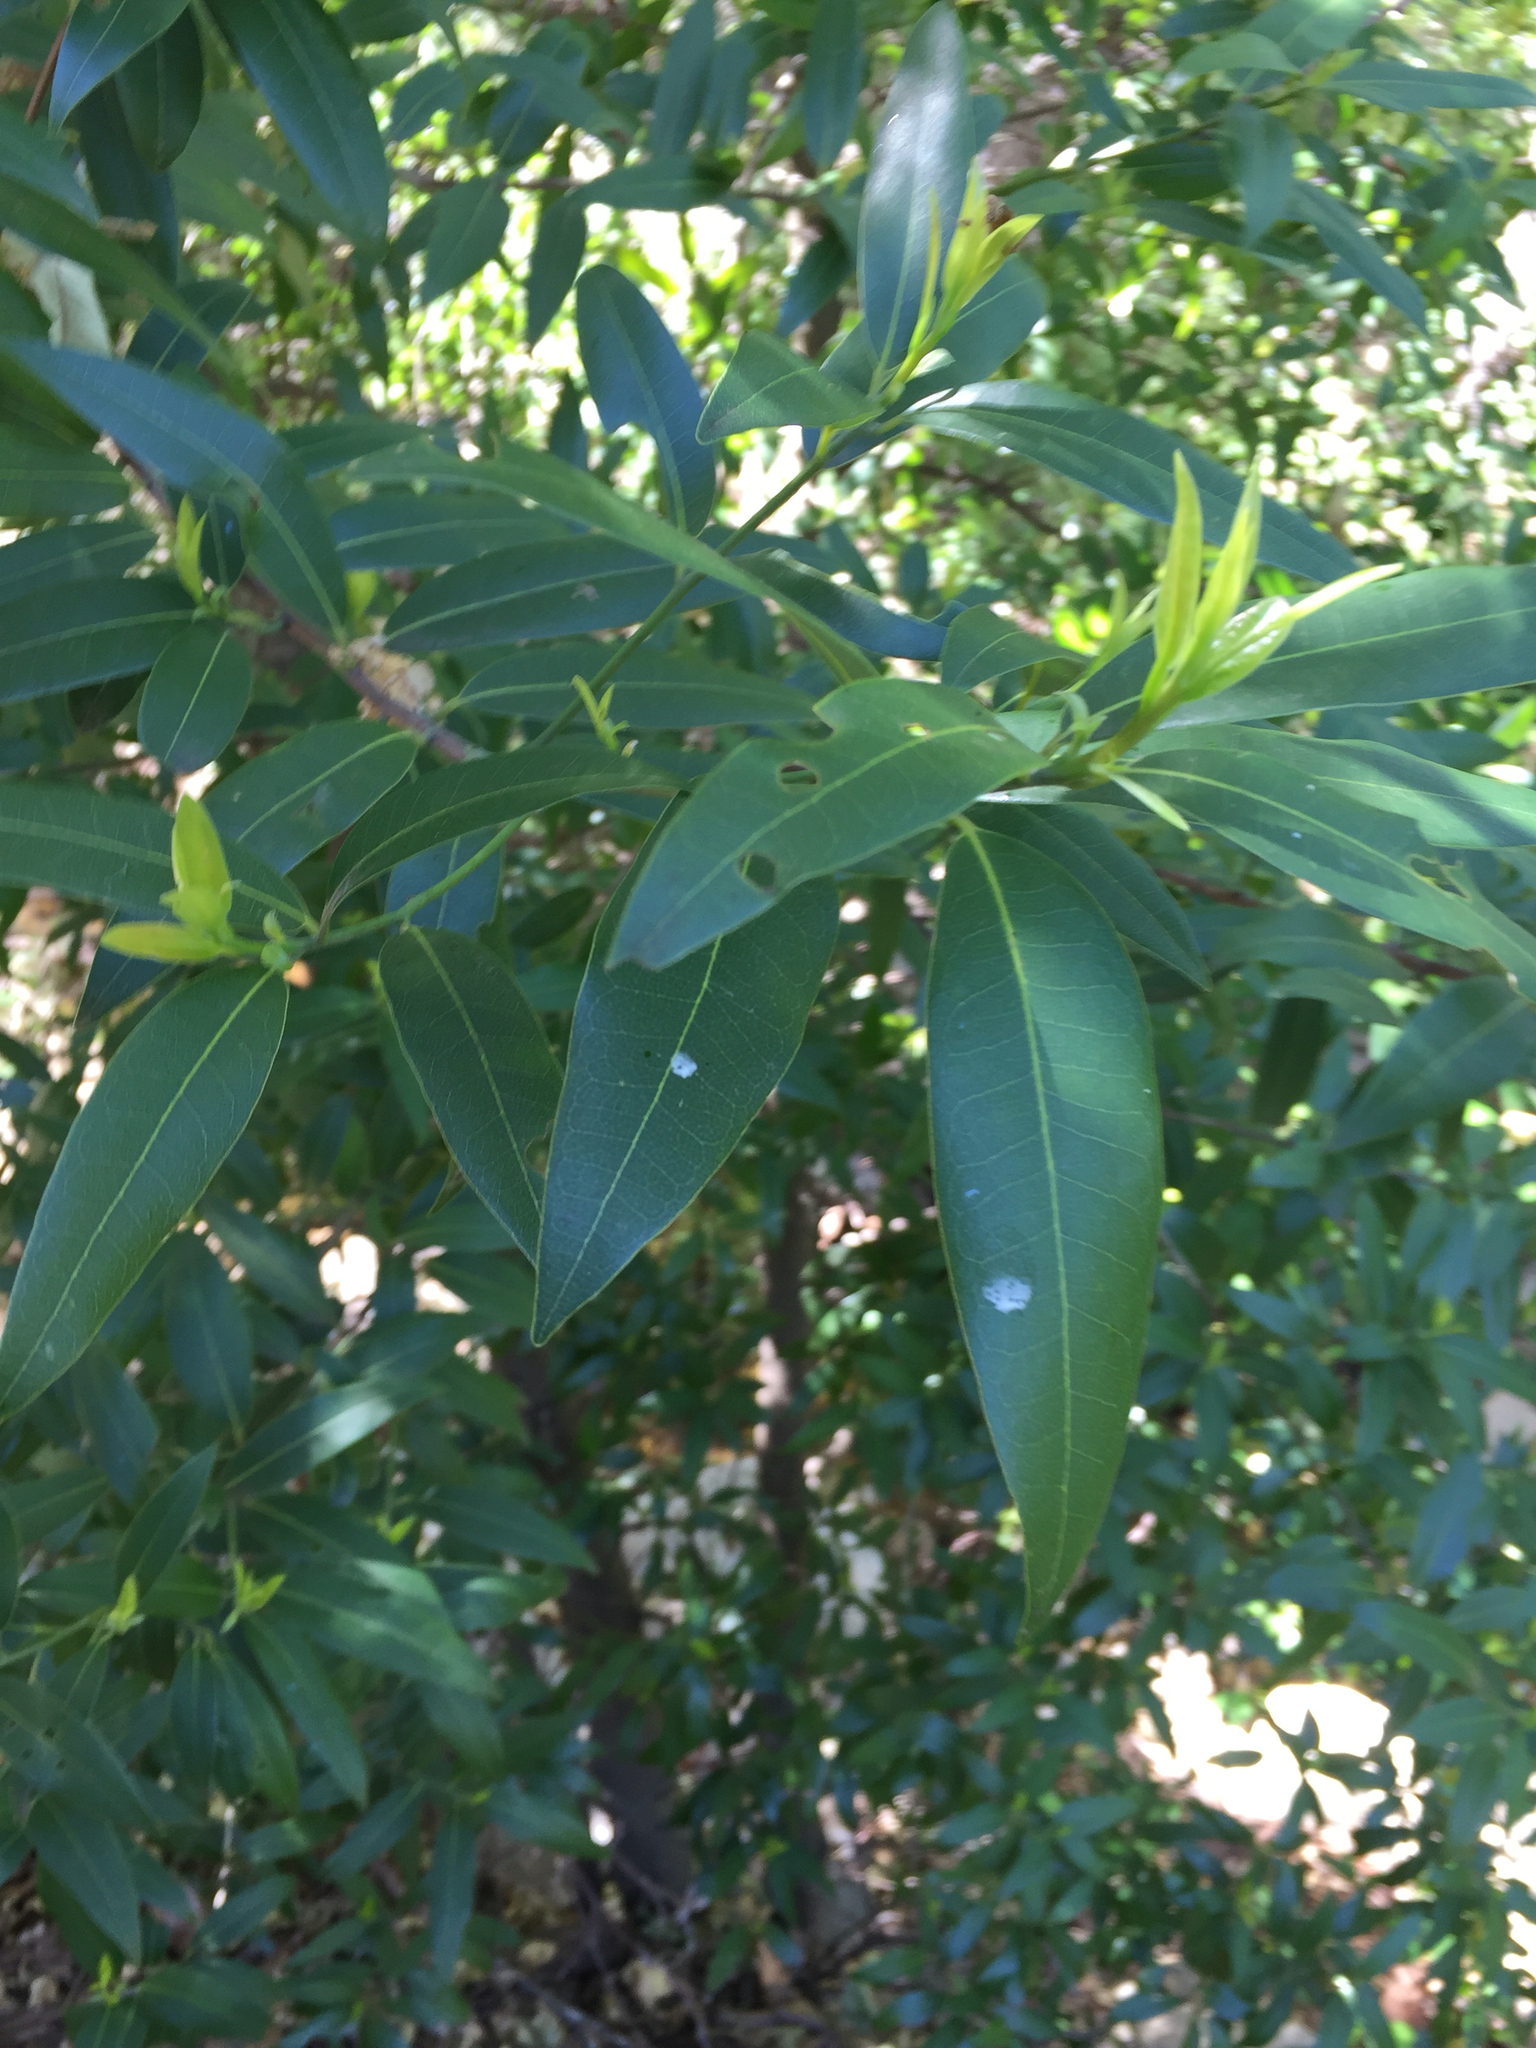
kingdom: Plantae
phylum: Tracheophyta
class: Magnoliopsida
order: Laurales
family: Lauraceae
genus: Umbellularia
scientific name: Umbellularia californica
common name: California bay
